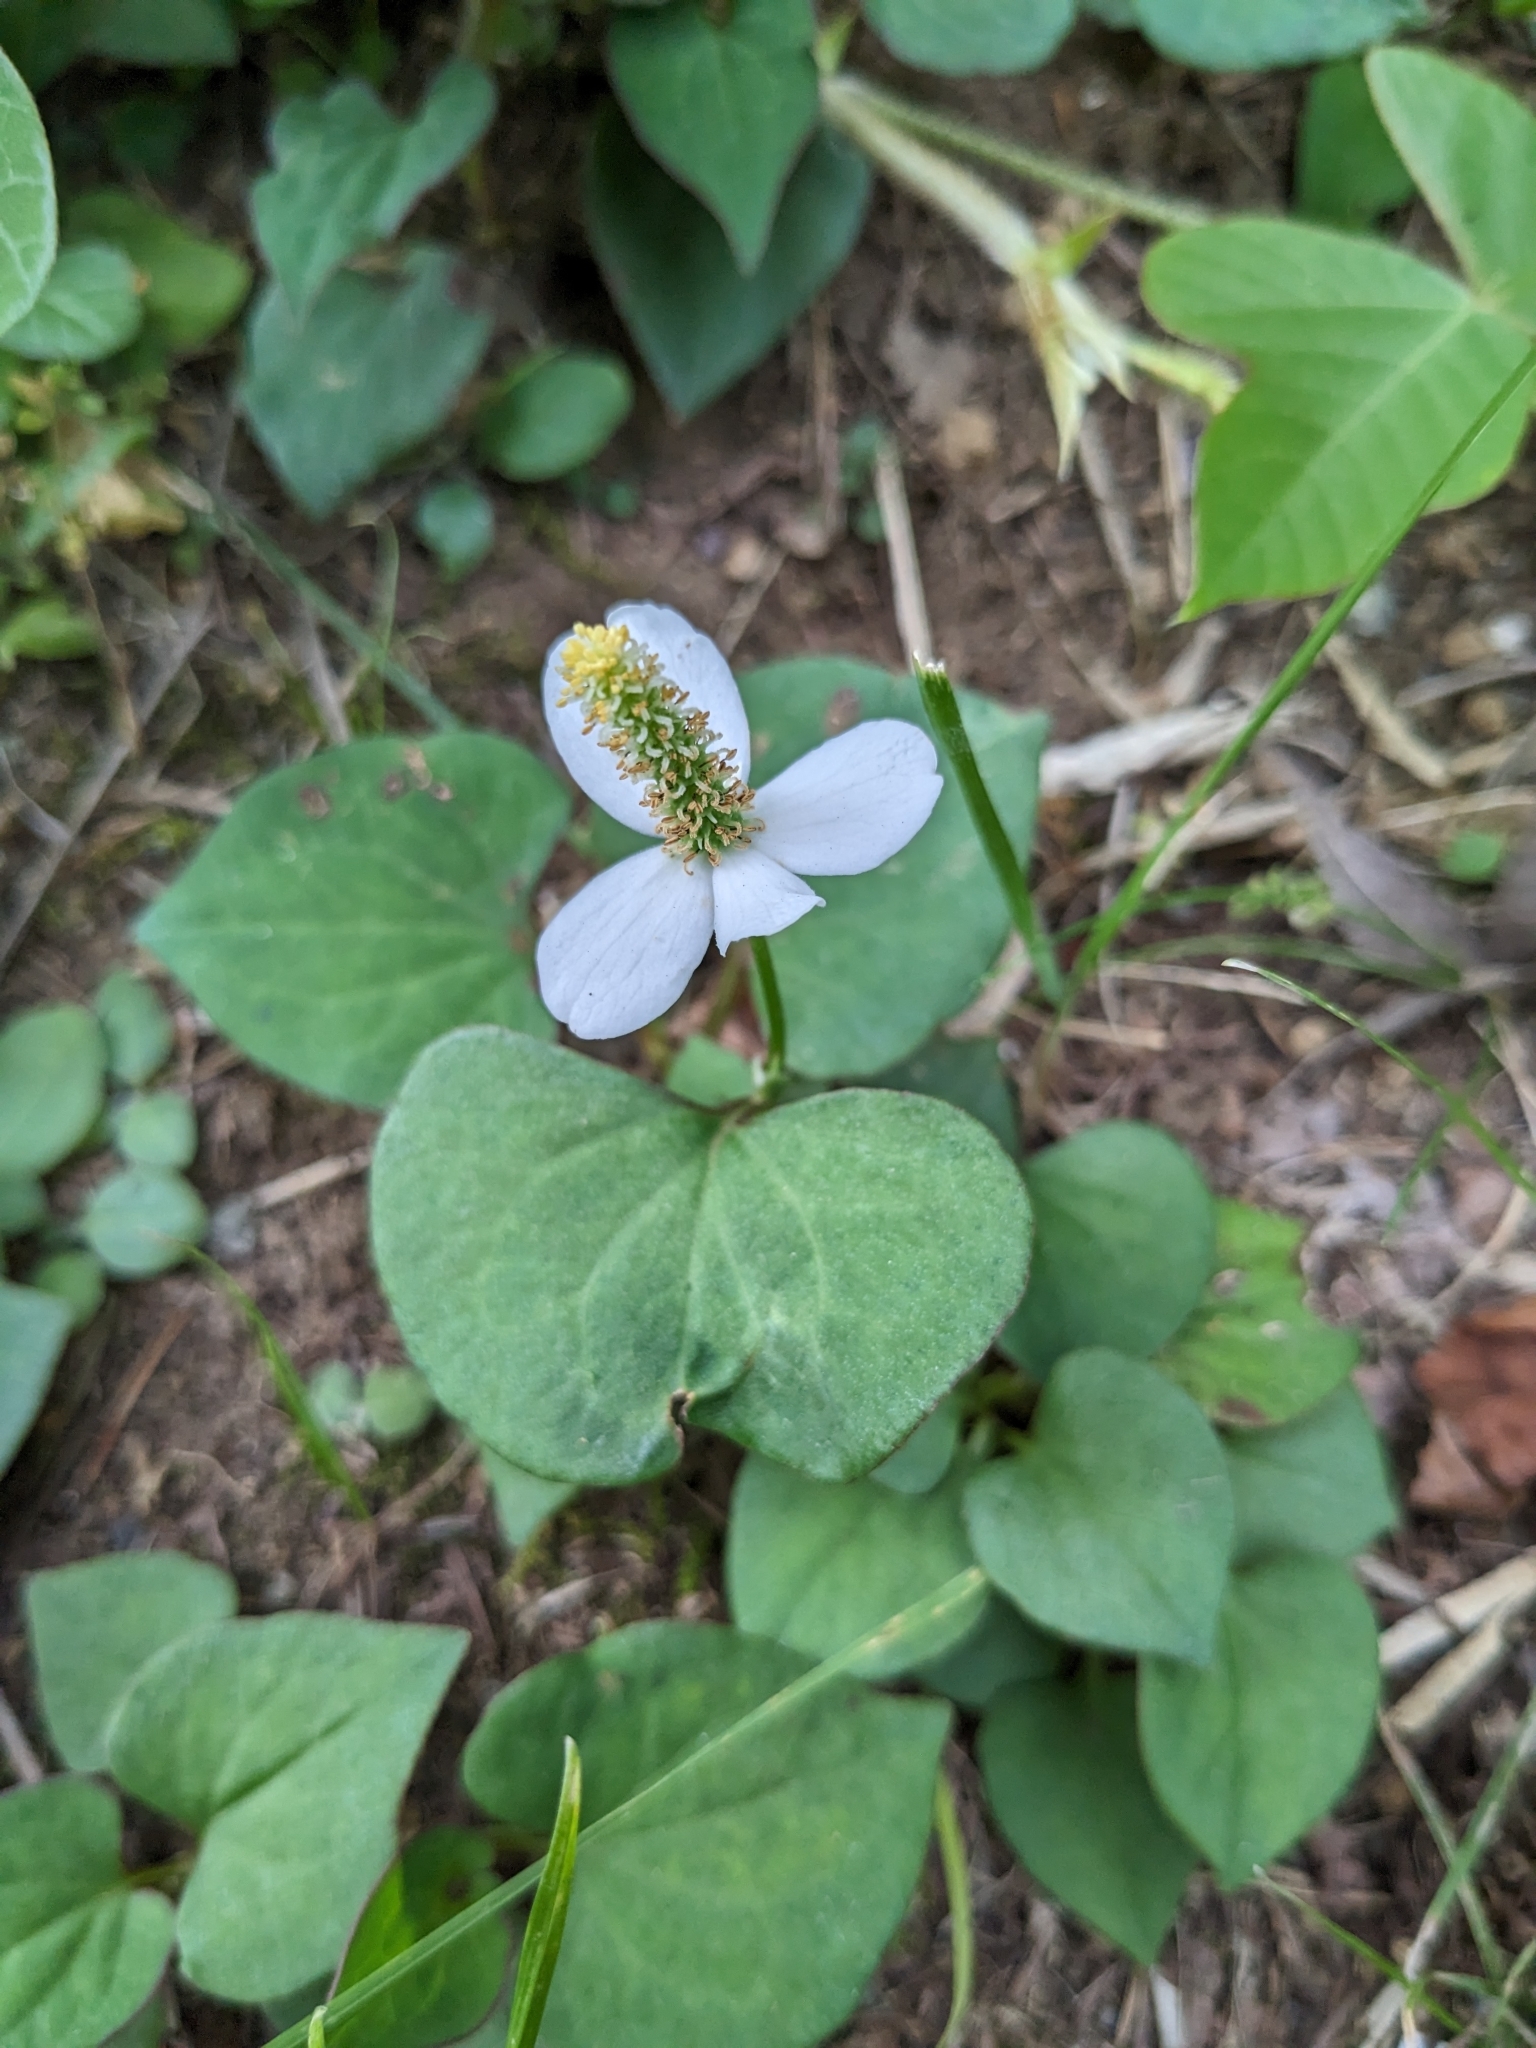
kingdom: Plantae
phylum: Tracheophyta
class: Magnoliopsida
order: Piperales
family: Saururaceae
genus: Houttuynia
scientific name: Houttuynia cordata
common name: Chameleon
